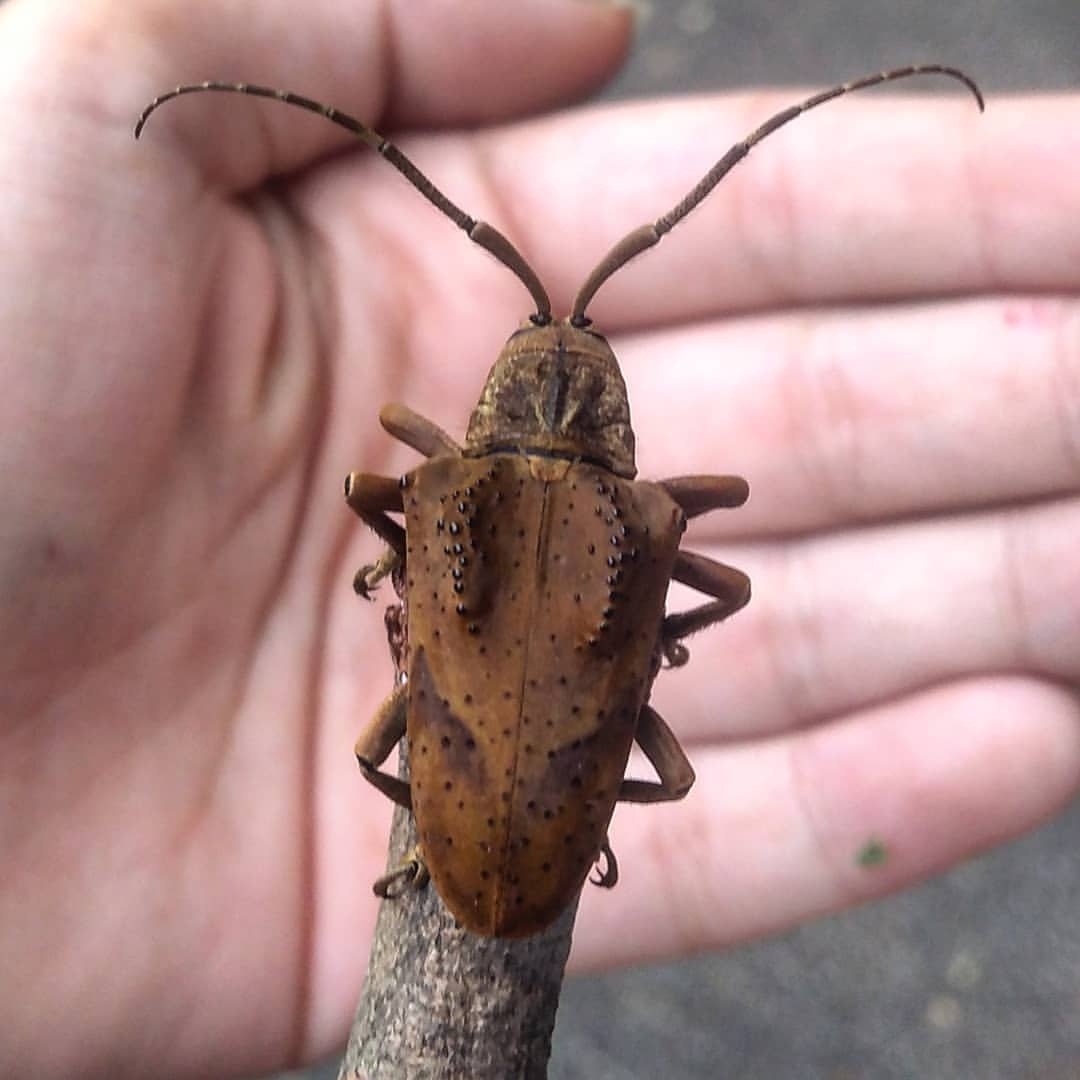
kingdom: Animalia
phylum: Arthropoda
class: Insecta
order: Coleoptera
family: Cerambycidae
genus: Hypselomus
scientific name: Hypselomus cristatus
